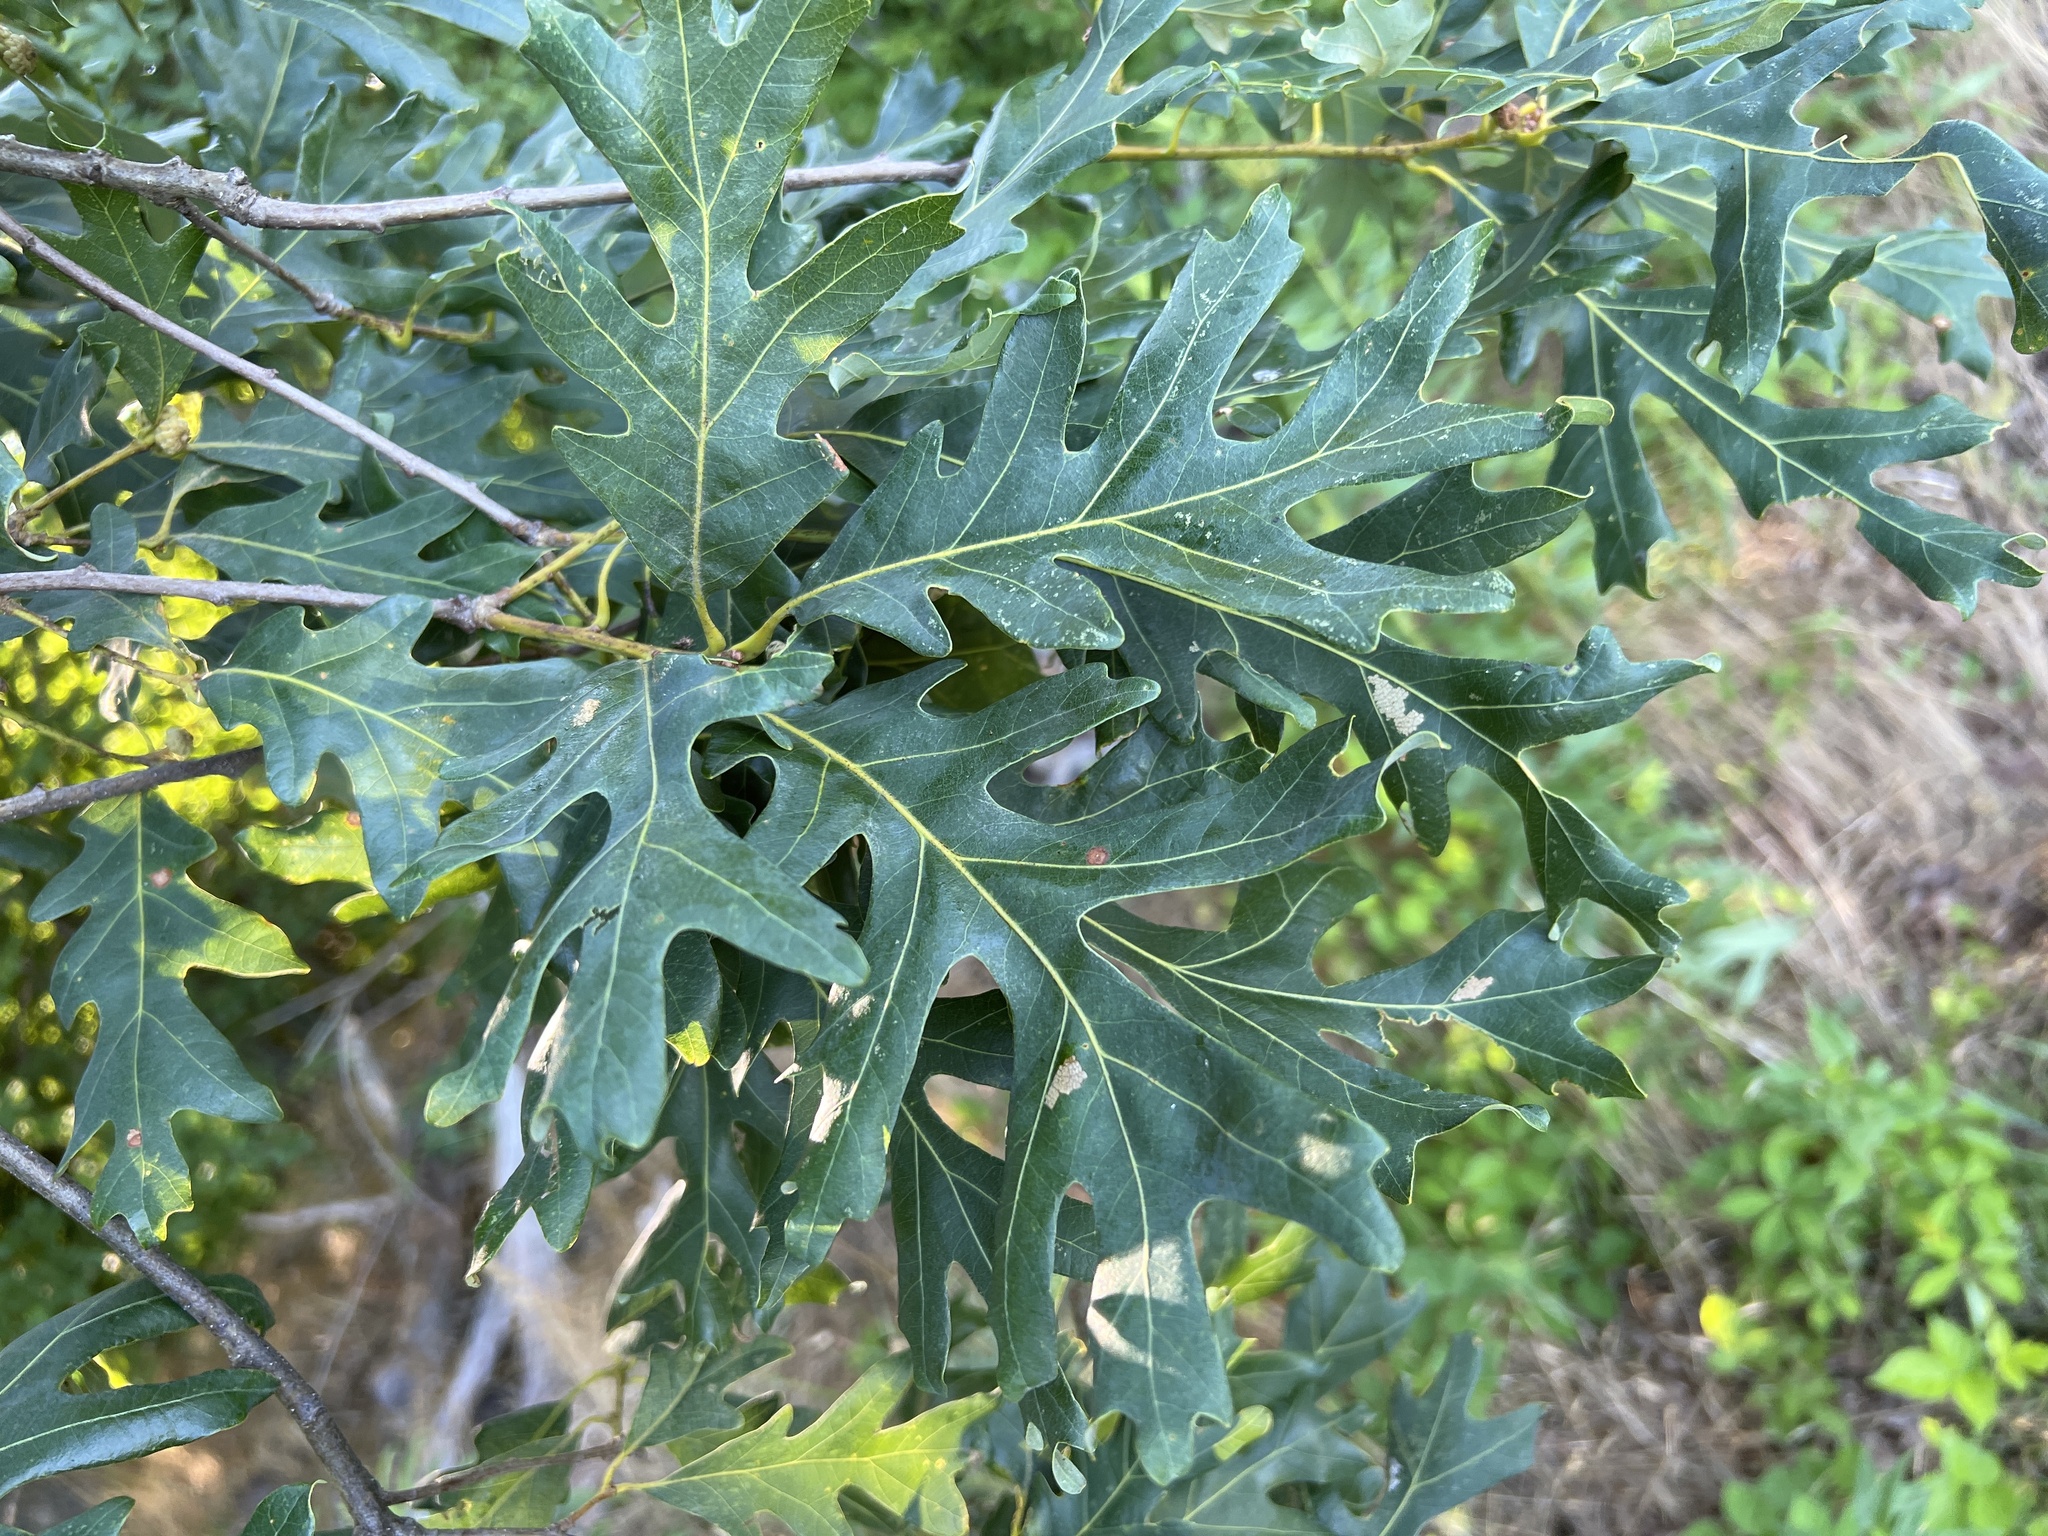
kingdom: Plantae
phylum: Tracheophyta
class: Magnoliopsida
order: Fagales
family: Fagaceae
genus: Quercus
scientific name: Quercus alba
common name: White oak
